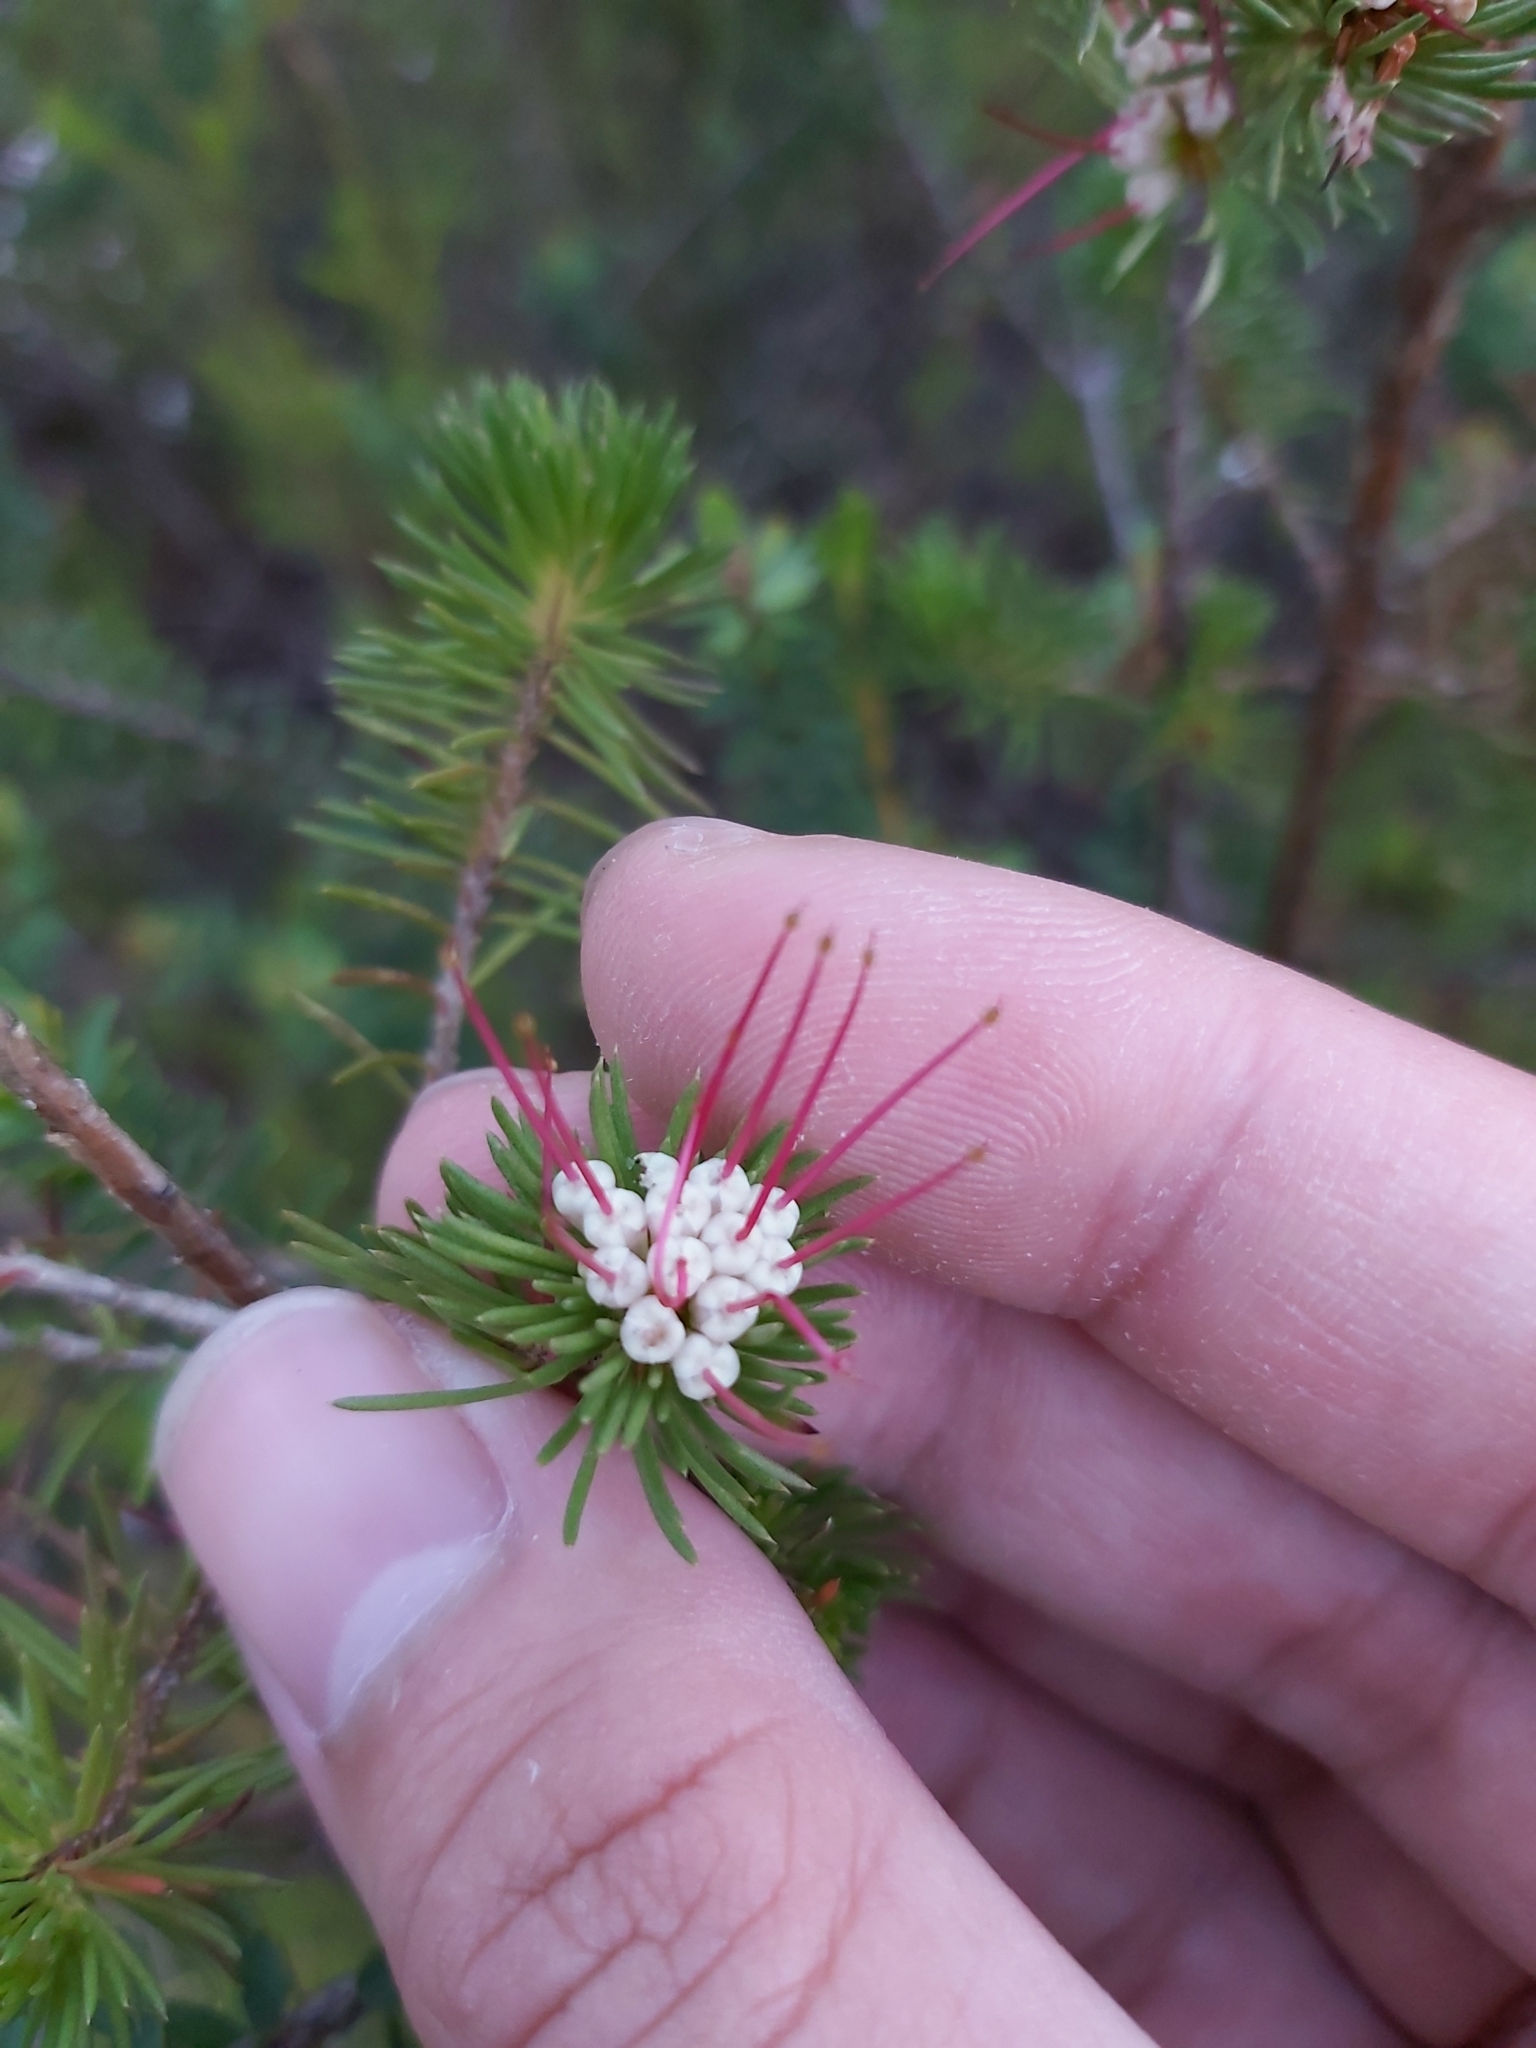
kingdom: Plantae
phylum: Tracheophyta
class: Magnoliopsida
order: Myrtales
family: Myrtaceae
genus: Darwinia
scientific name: Darwinia fascicularis
